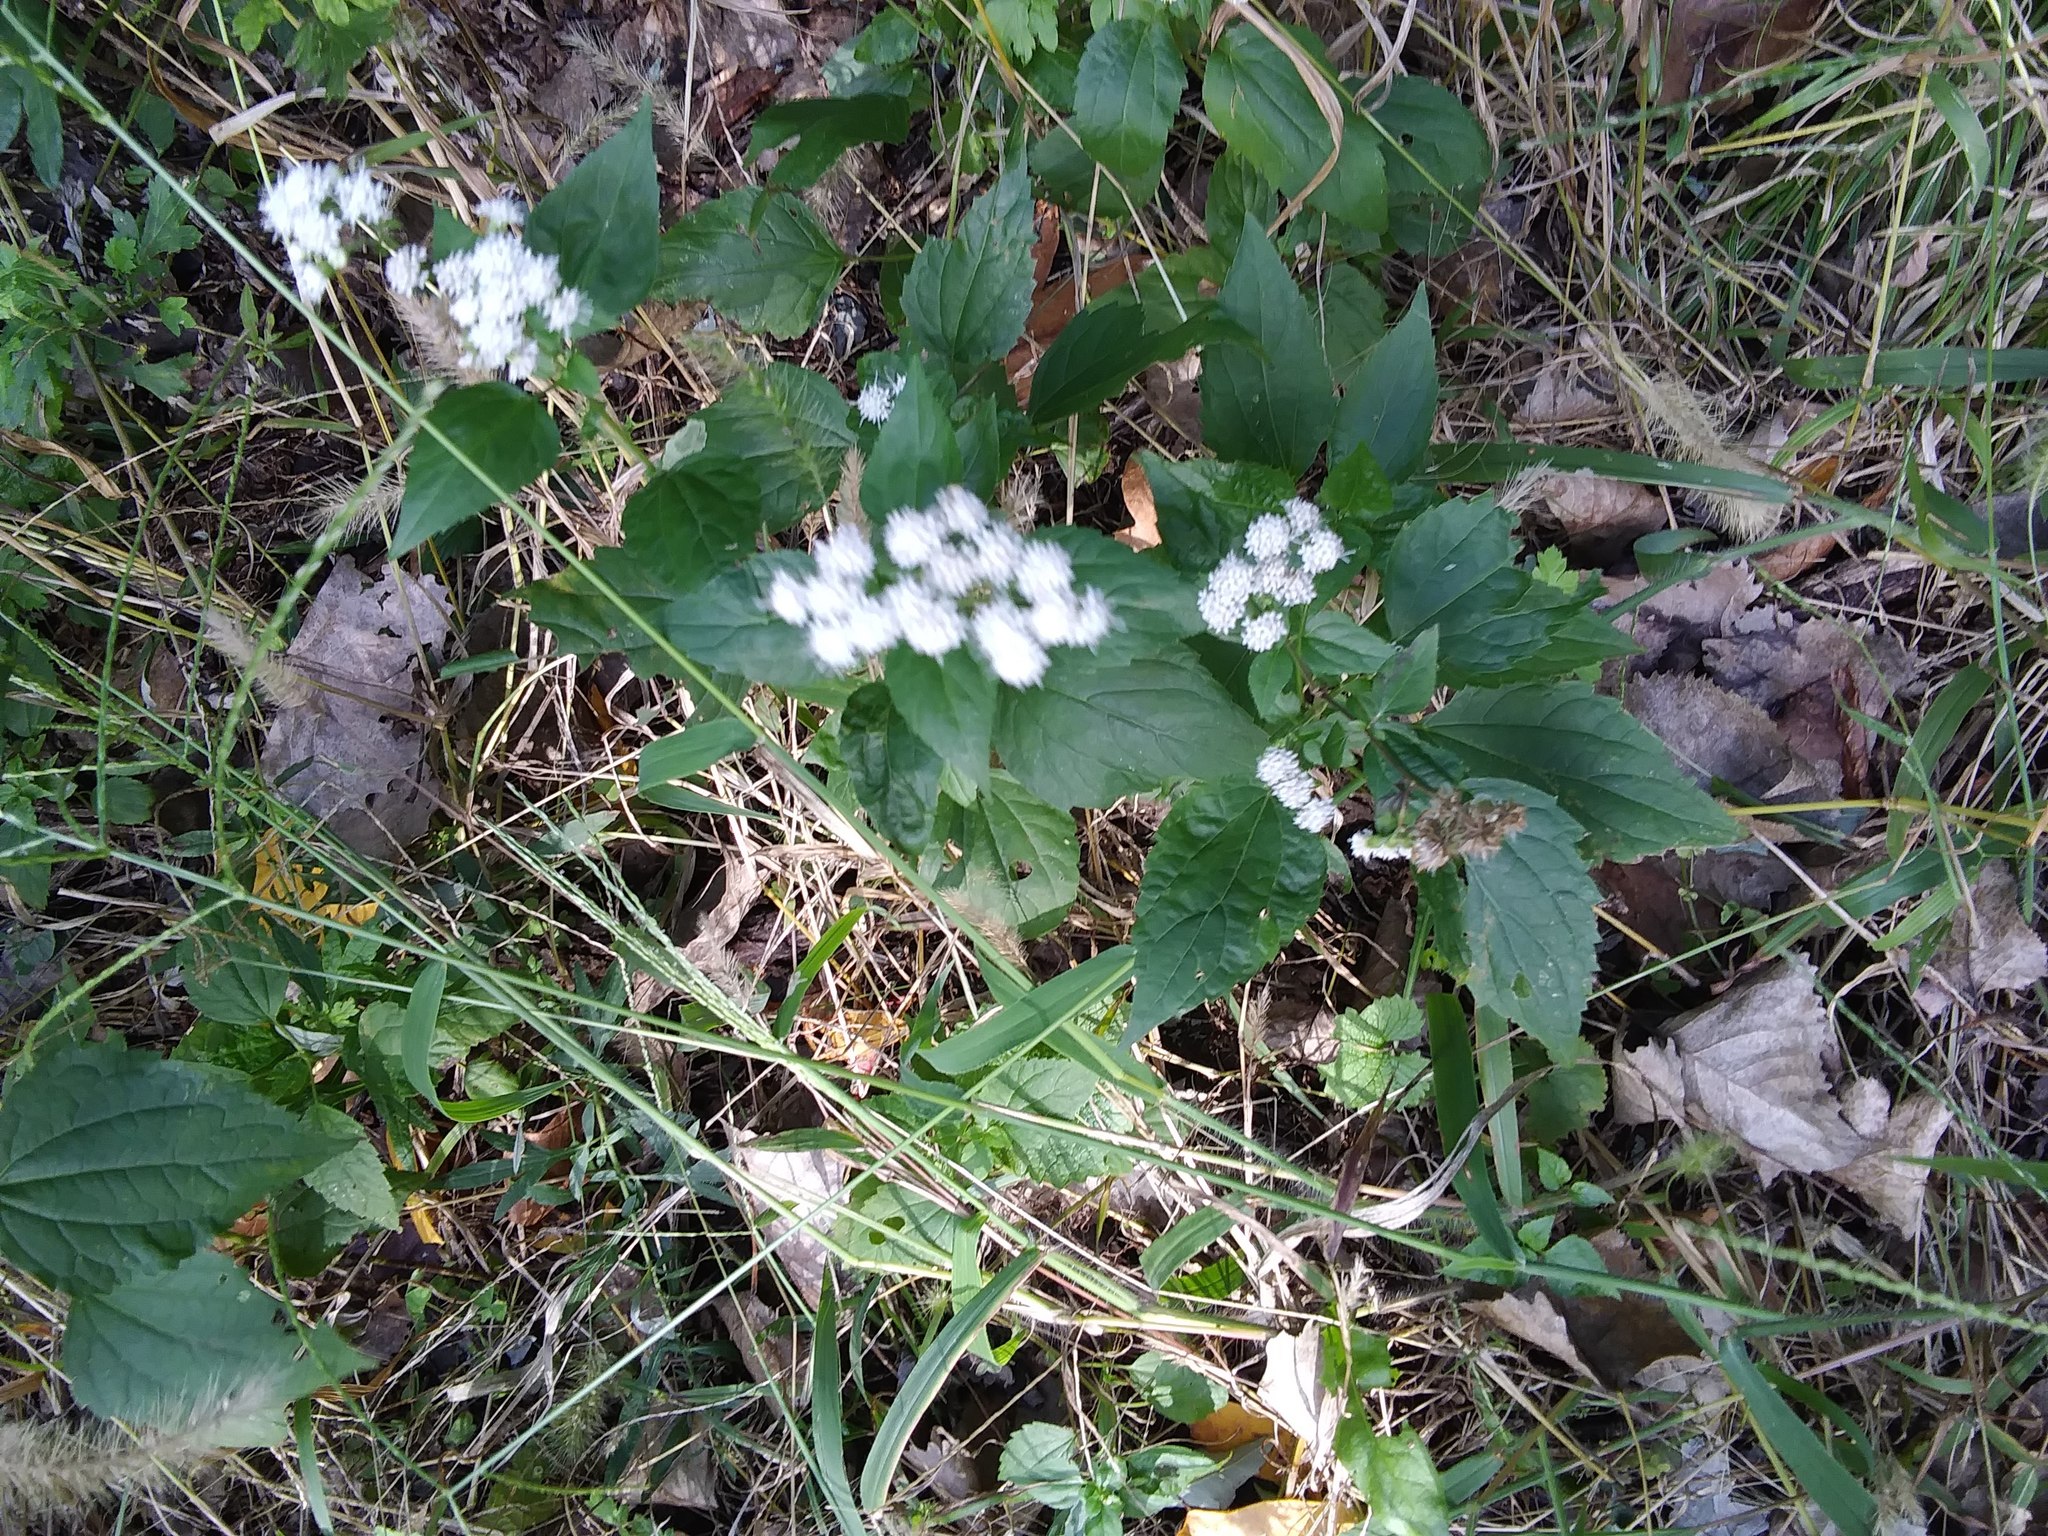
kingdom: Plantae
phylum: Tracheophyta
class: Magnoliopsida
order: Asterales
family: Asteraceae
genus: Ageratina
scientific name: Ageratina altissima
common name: White snakeroot
